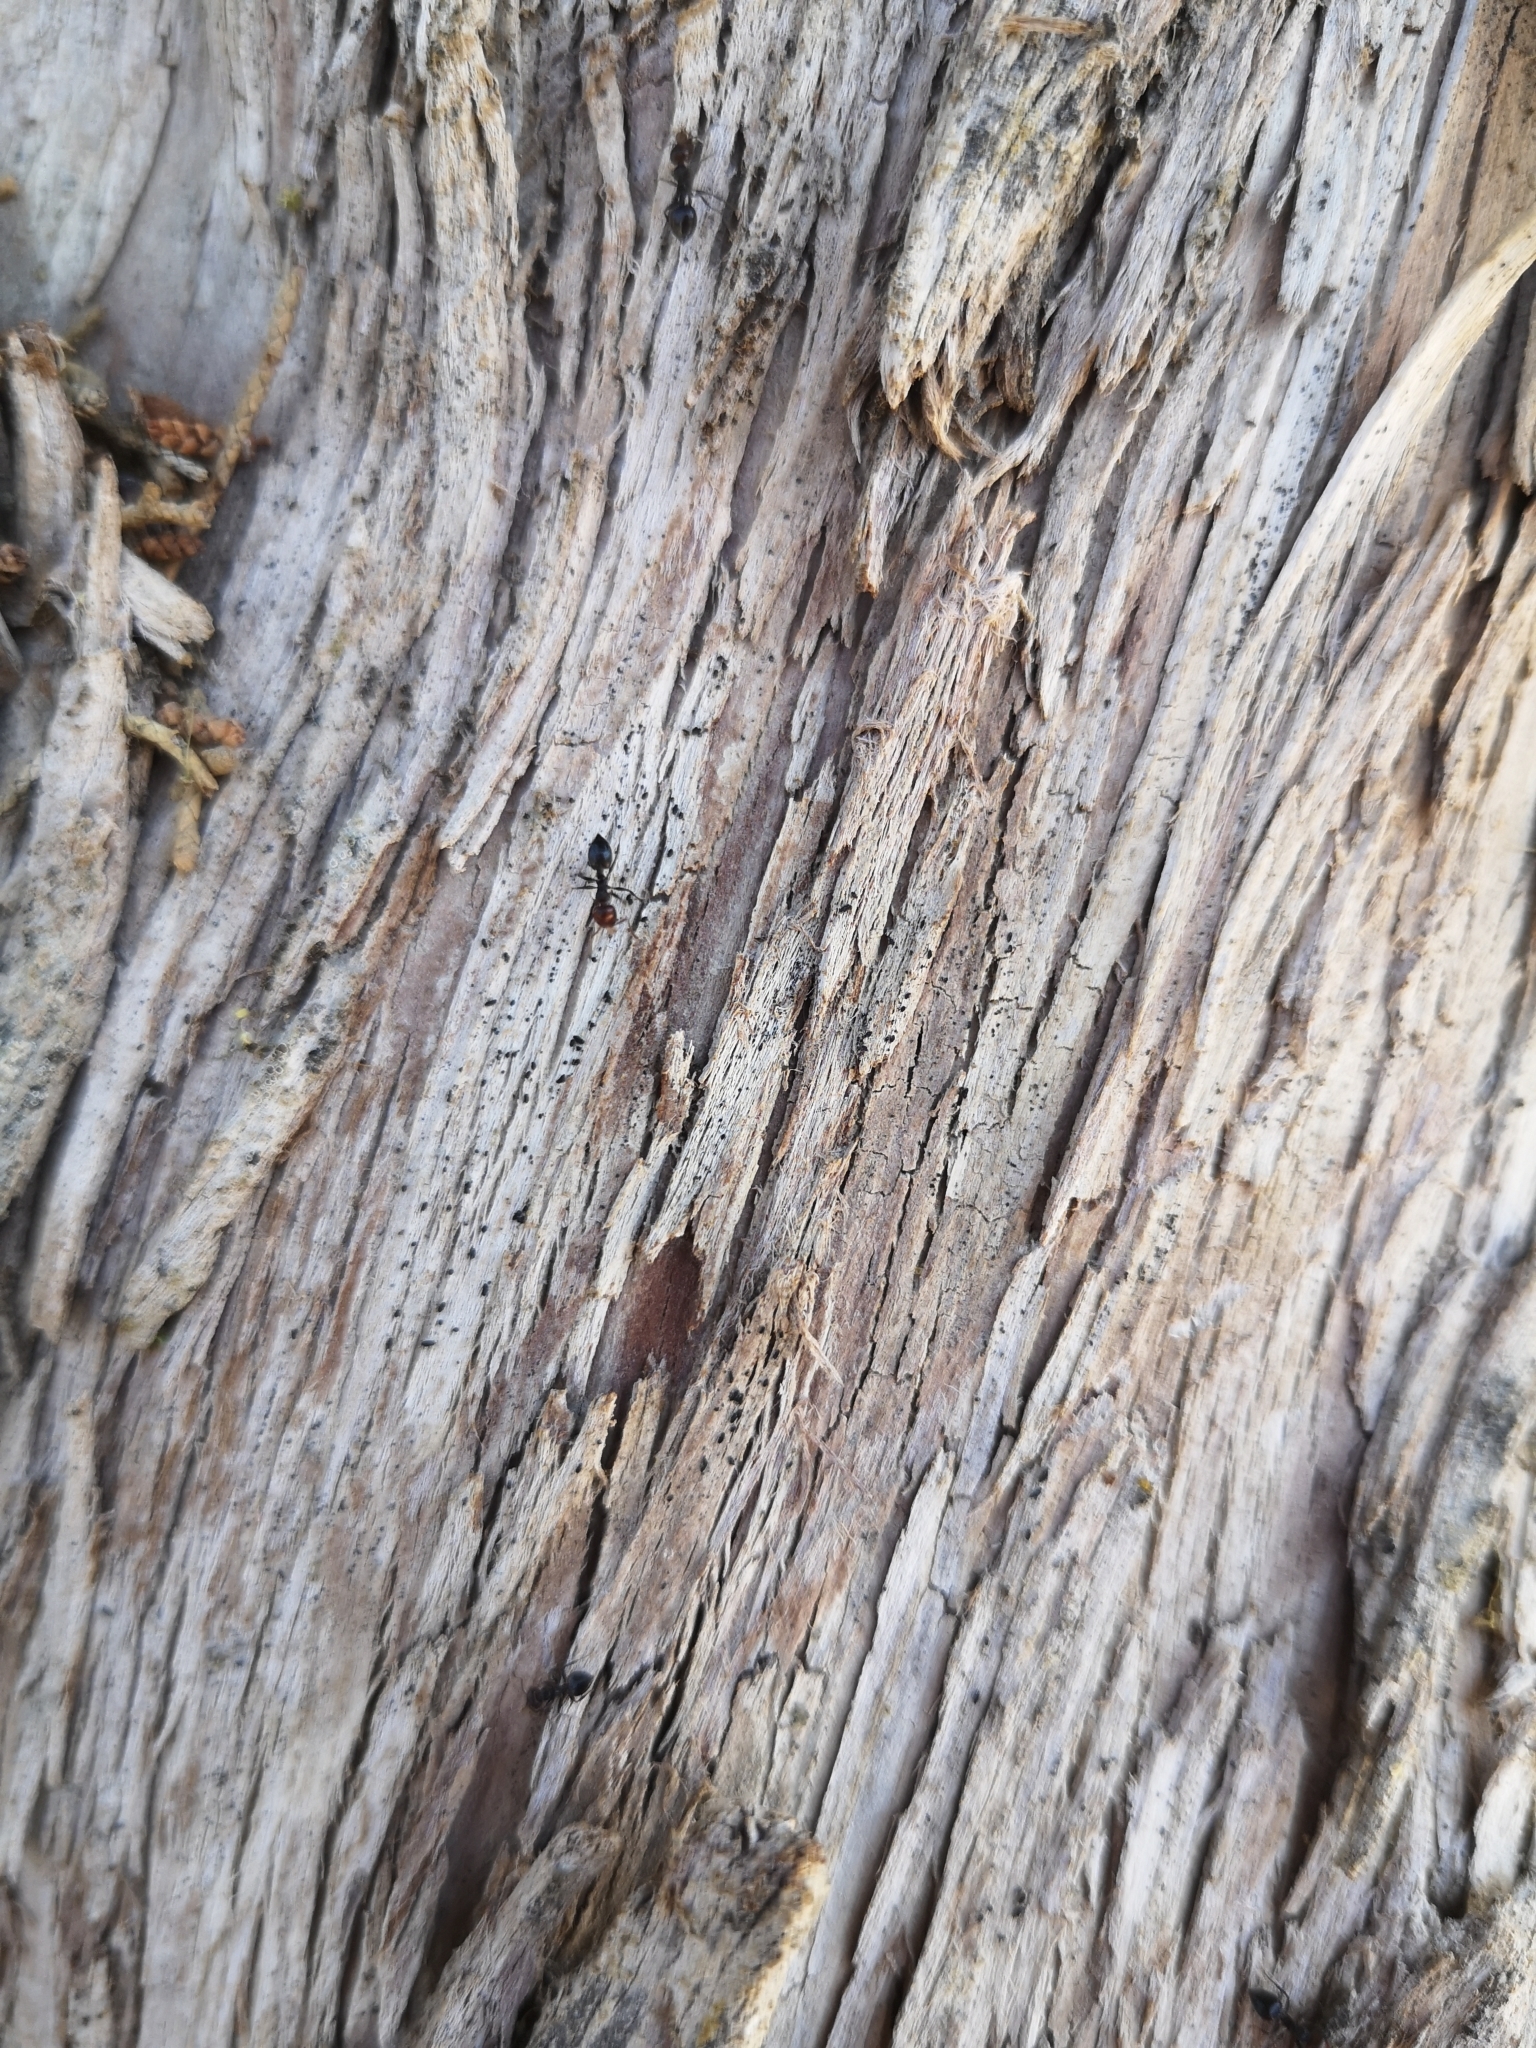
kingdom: Animalia
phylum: Arthropoda
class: Insecta
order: Hymenoptera
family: Formicidae
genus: Crematogaster
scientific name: Crematogaster scutellaris
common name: Fourmi du liège
